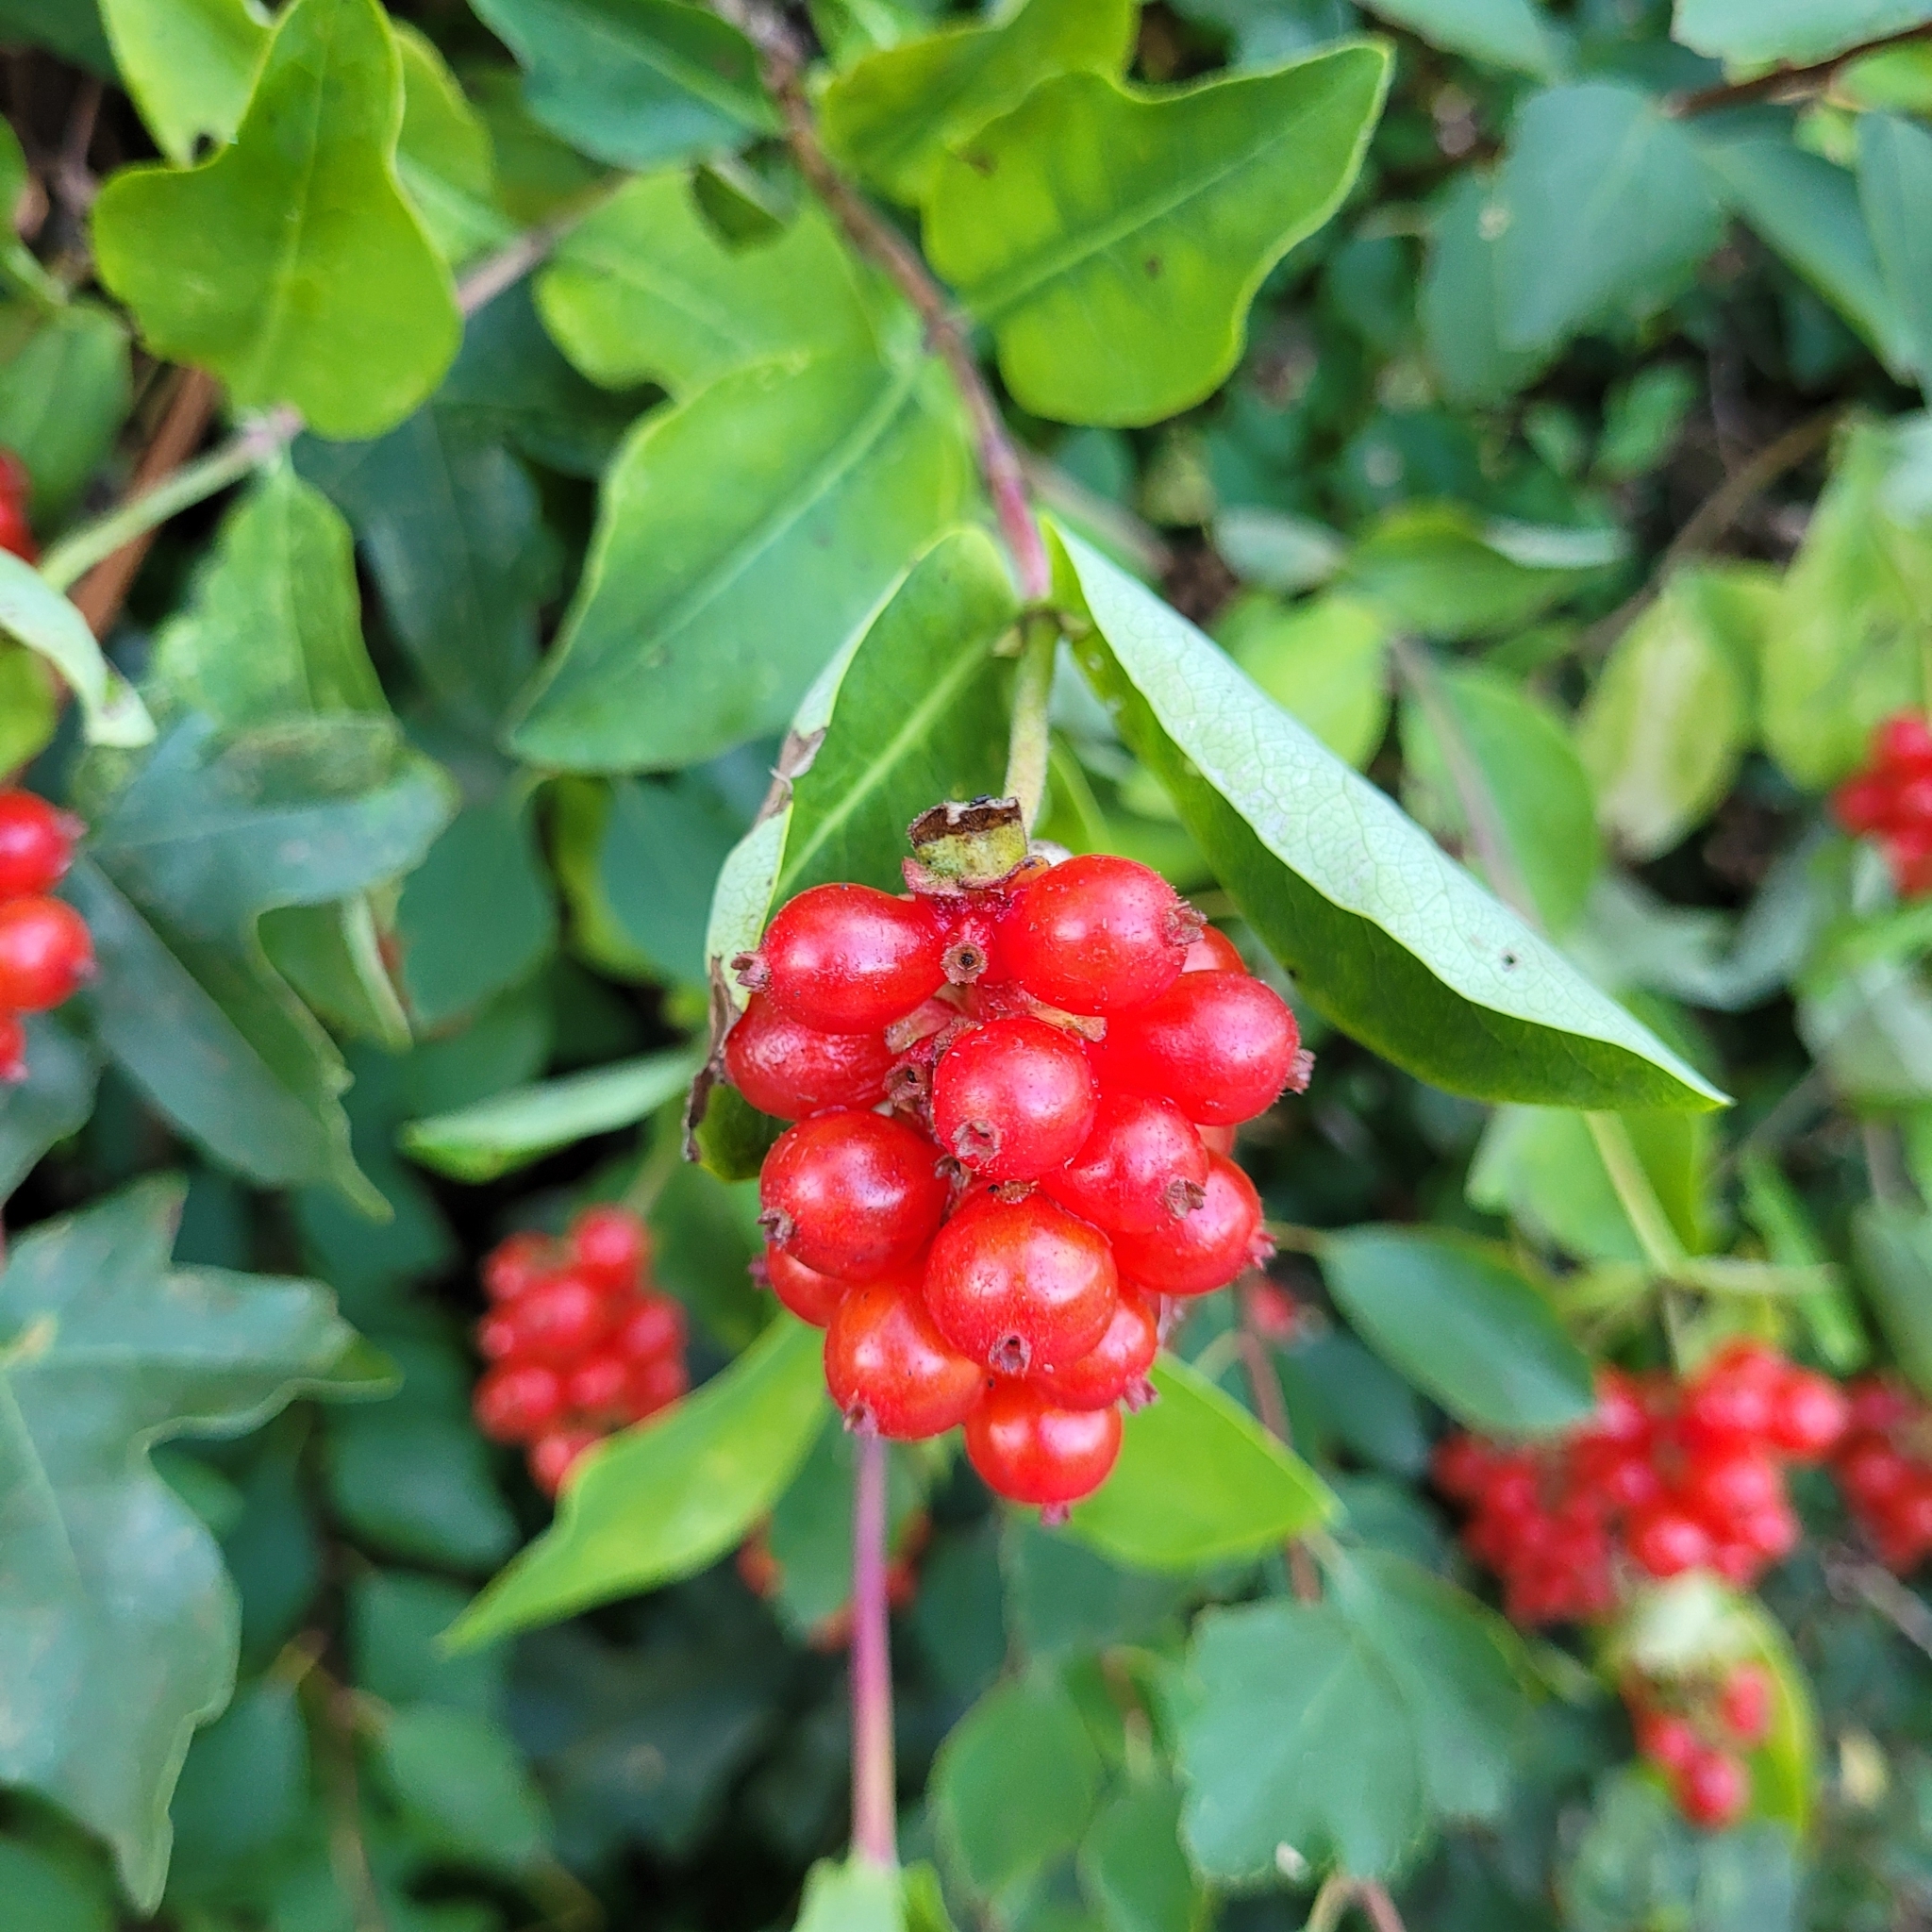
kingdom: Plantae
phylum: Tracheophyta
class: Magnoliopsida
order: Dipsacales
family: Caprifoliaceae
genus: Lonicera
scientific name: Lonicera periclymenum
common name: European honeysuckle
